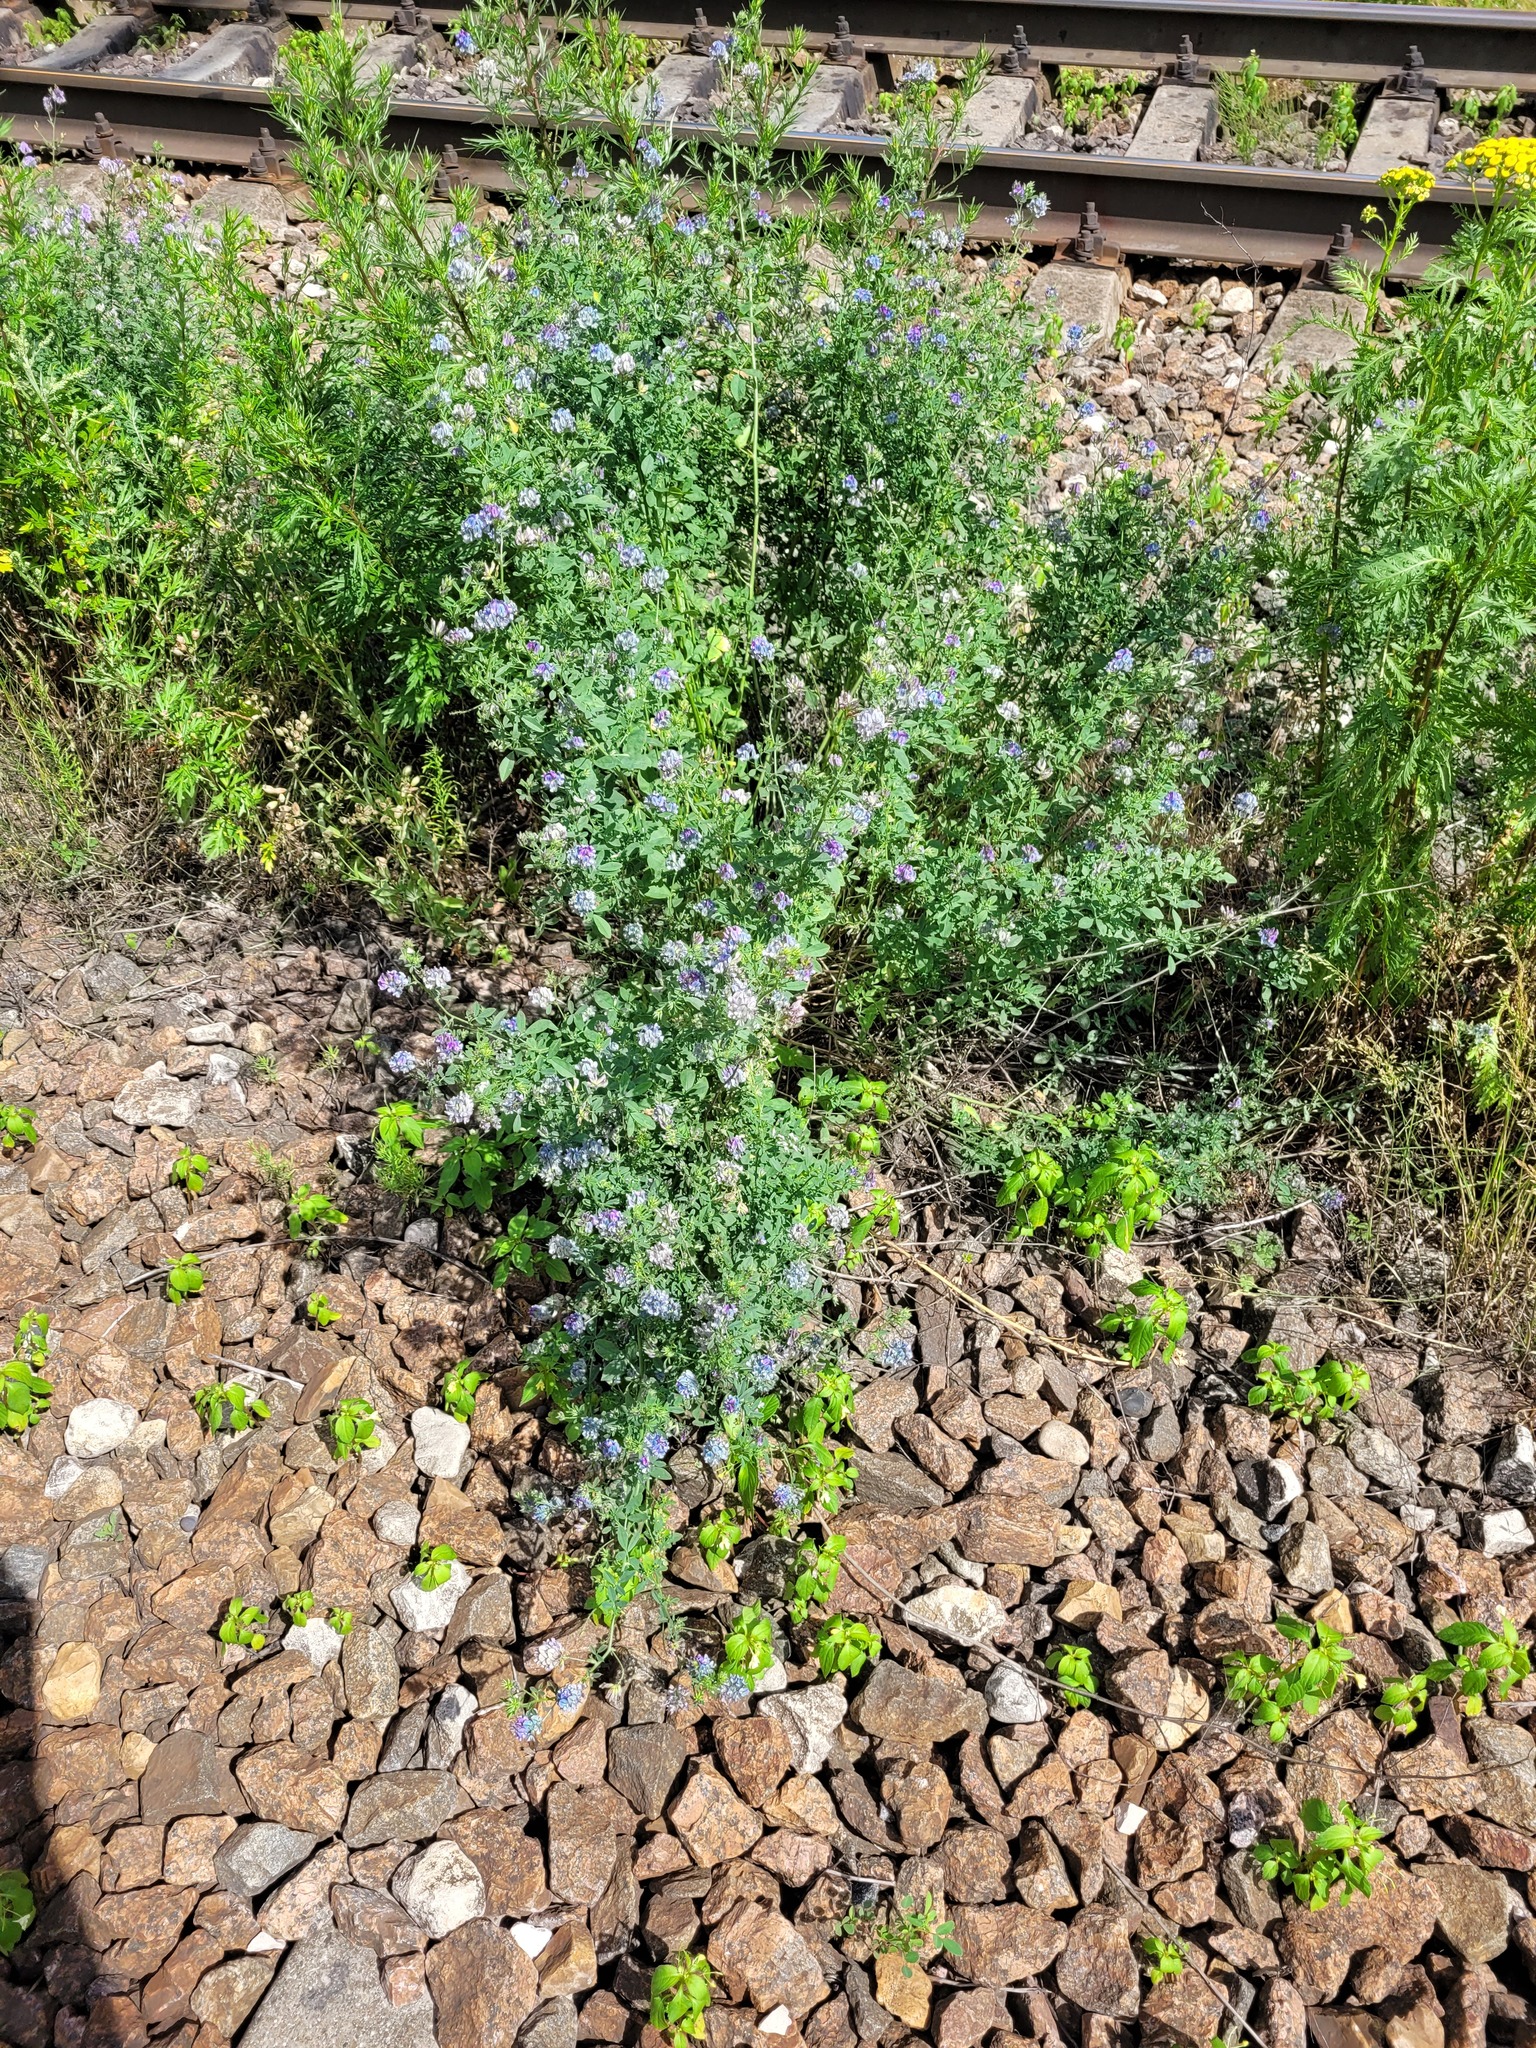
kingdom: Plantae
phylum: Tracheophyta
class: Magnoliopsida
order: Fabales
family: Fabaceae
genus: Medicago
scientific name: Medicago varia
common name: Sand lucerne
